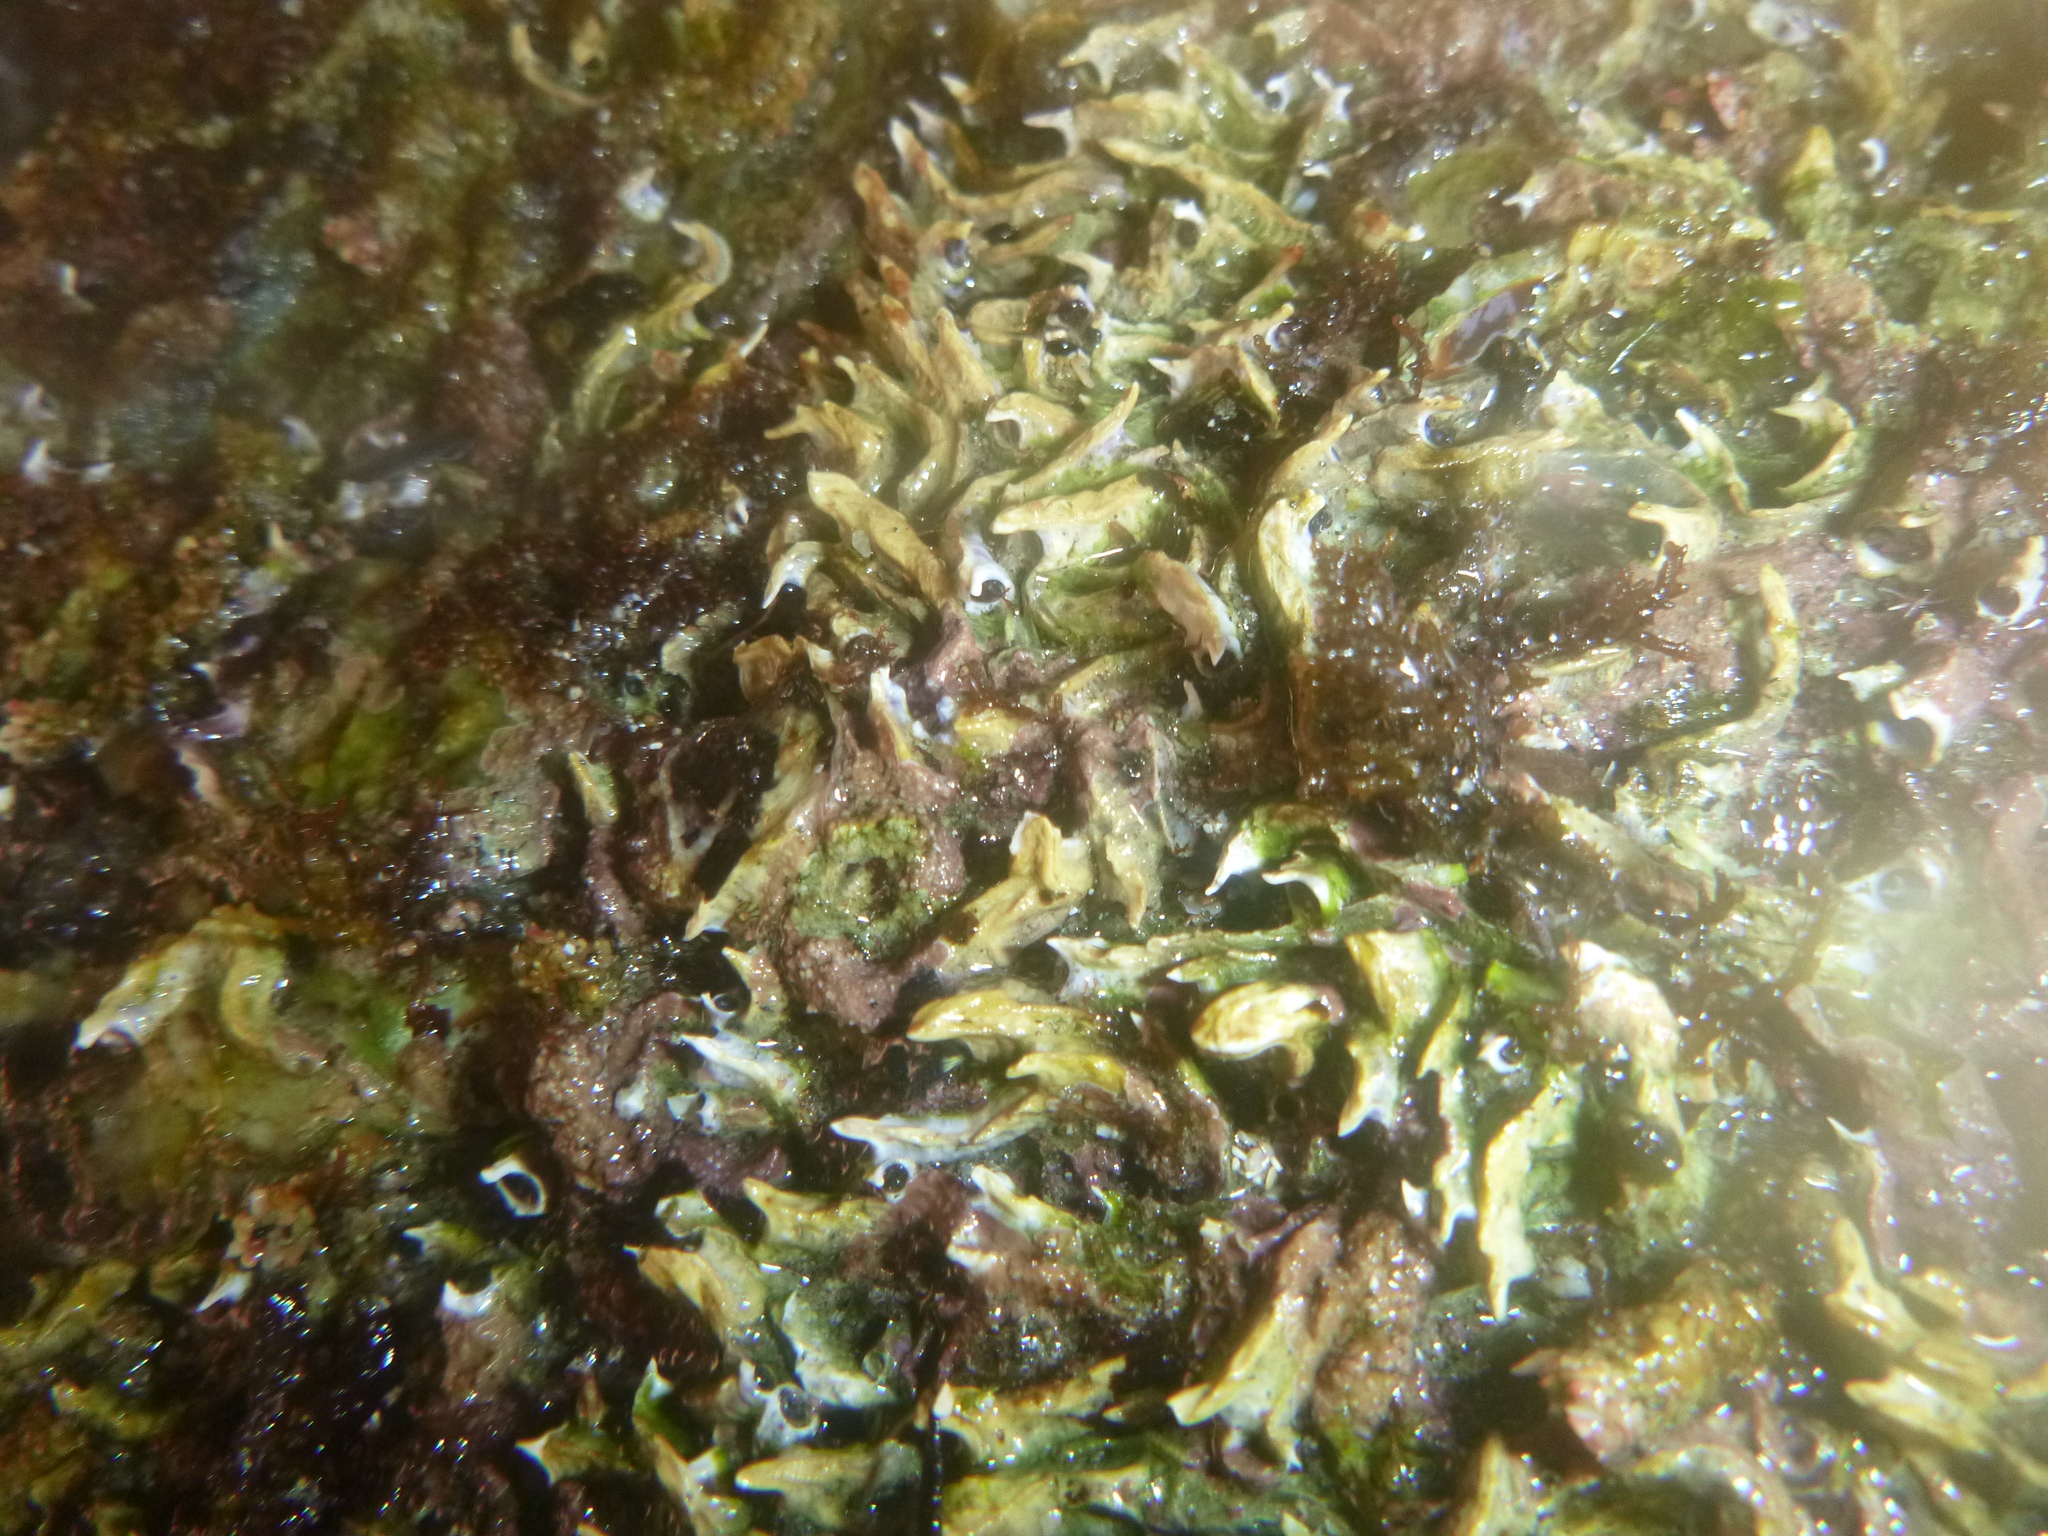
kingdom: Animalia
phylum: Annelida
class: Polychaeta
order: Sabellida
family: Serpulidae
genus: Spirobranchus
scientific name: Spirobranchus cariniferus
